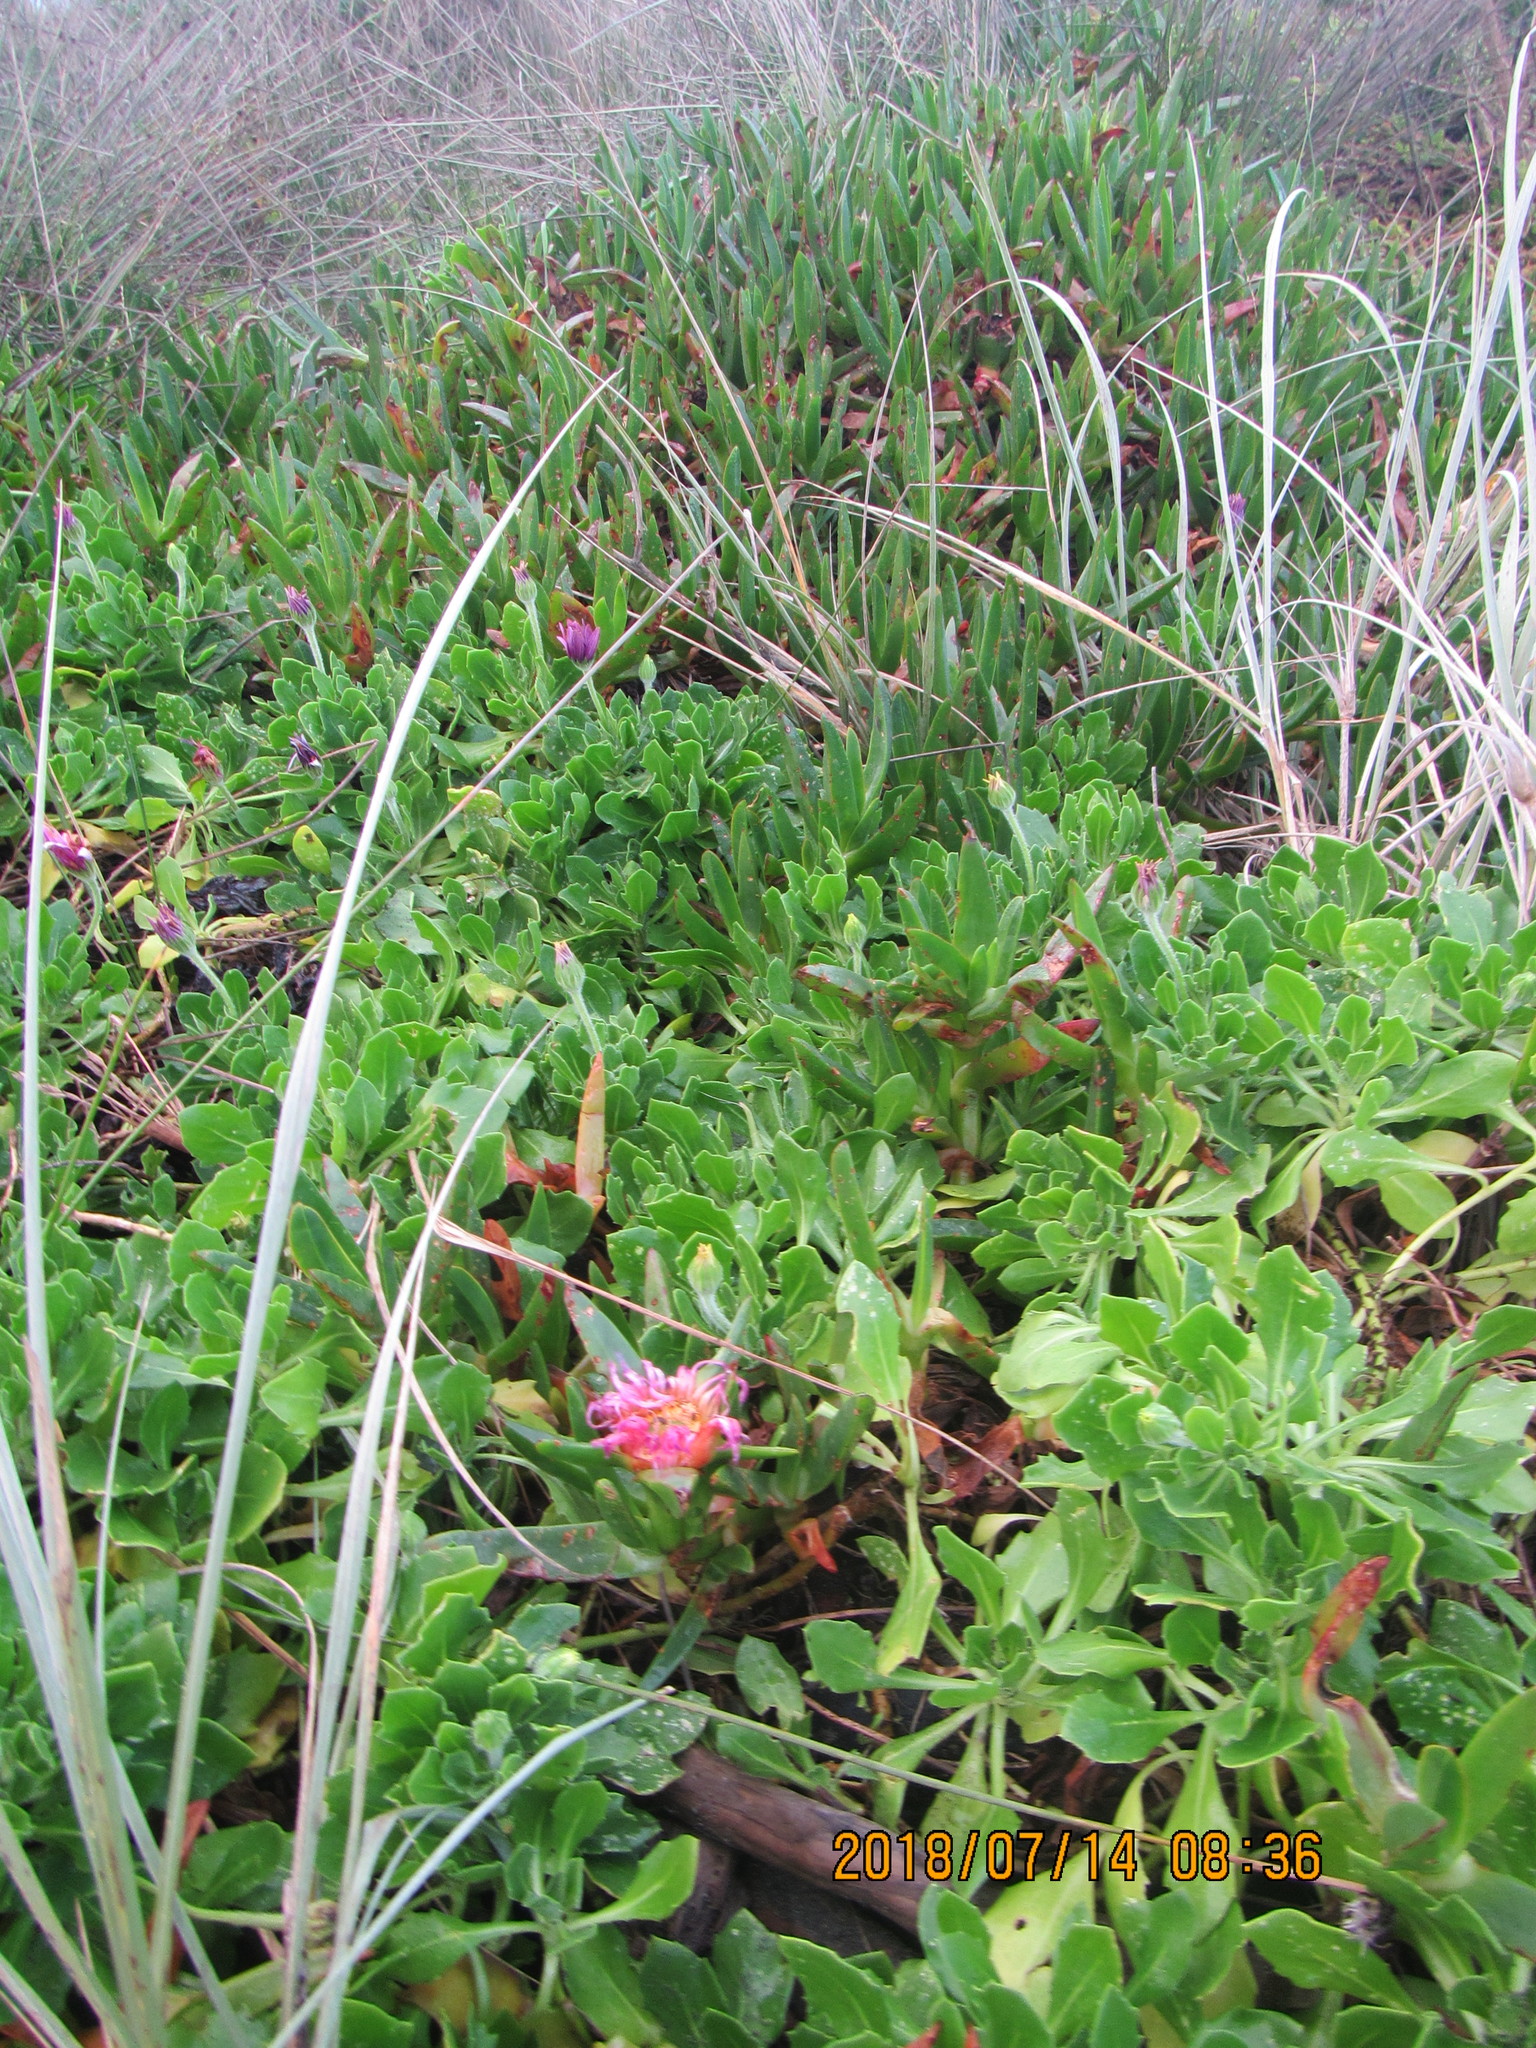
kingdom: Plantae
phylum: Tracheophyta
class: Magnoliopsida
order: Caryophyllales
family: Aizoaceae
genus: Carpobrotus
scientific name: Carpobrotus edulis
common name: Hottentot-fig
